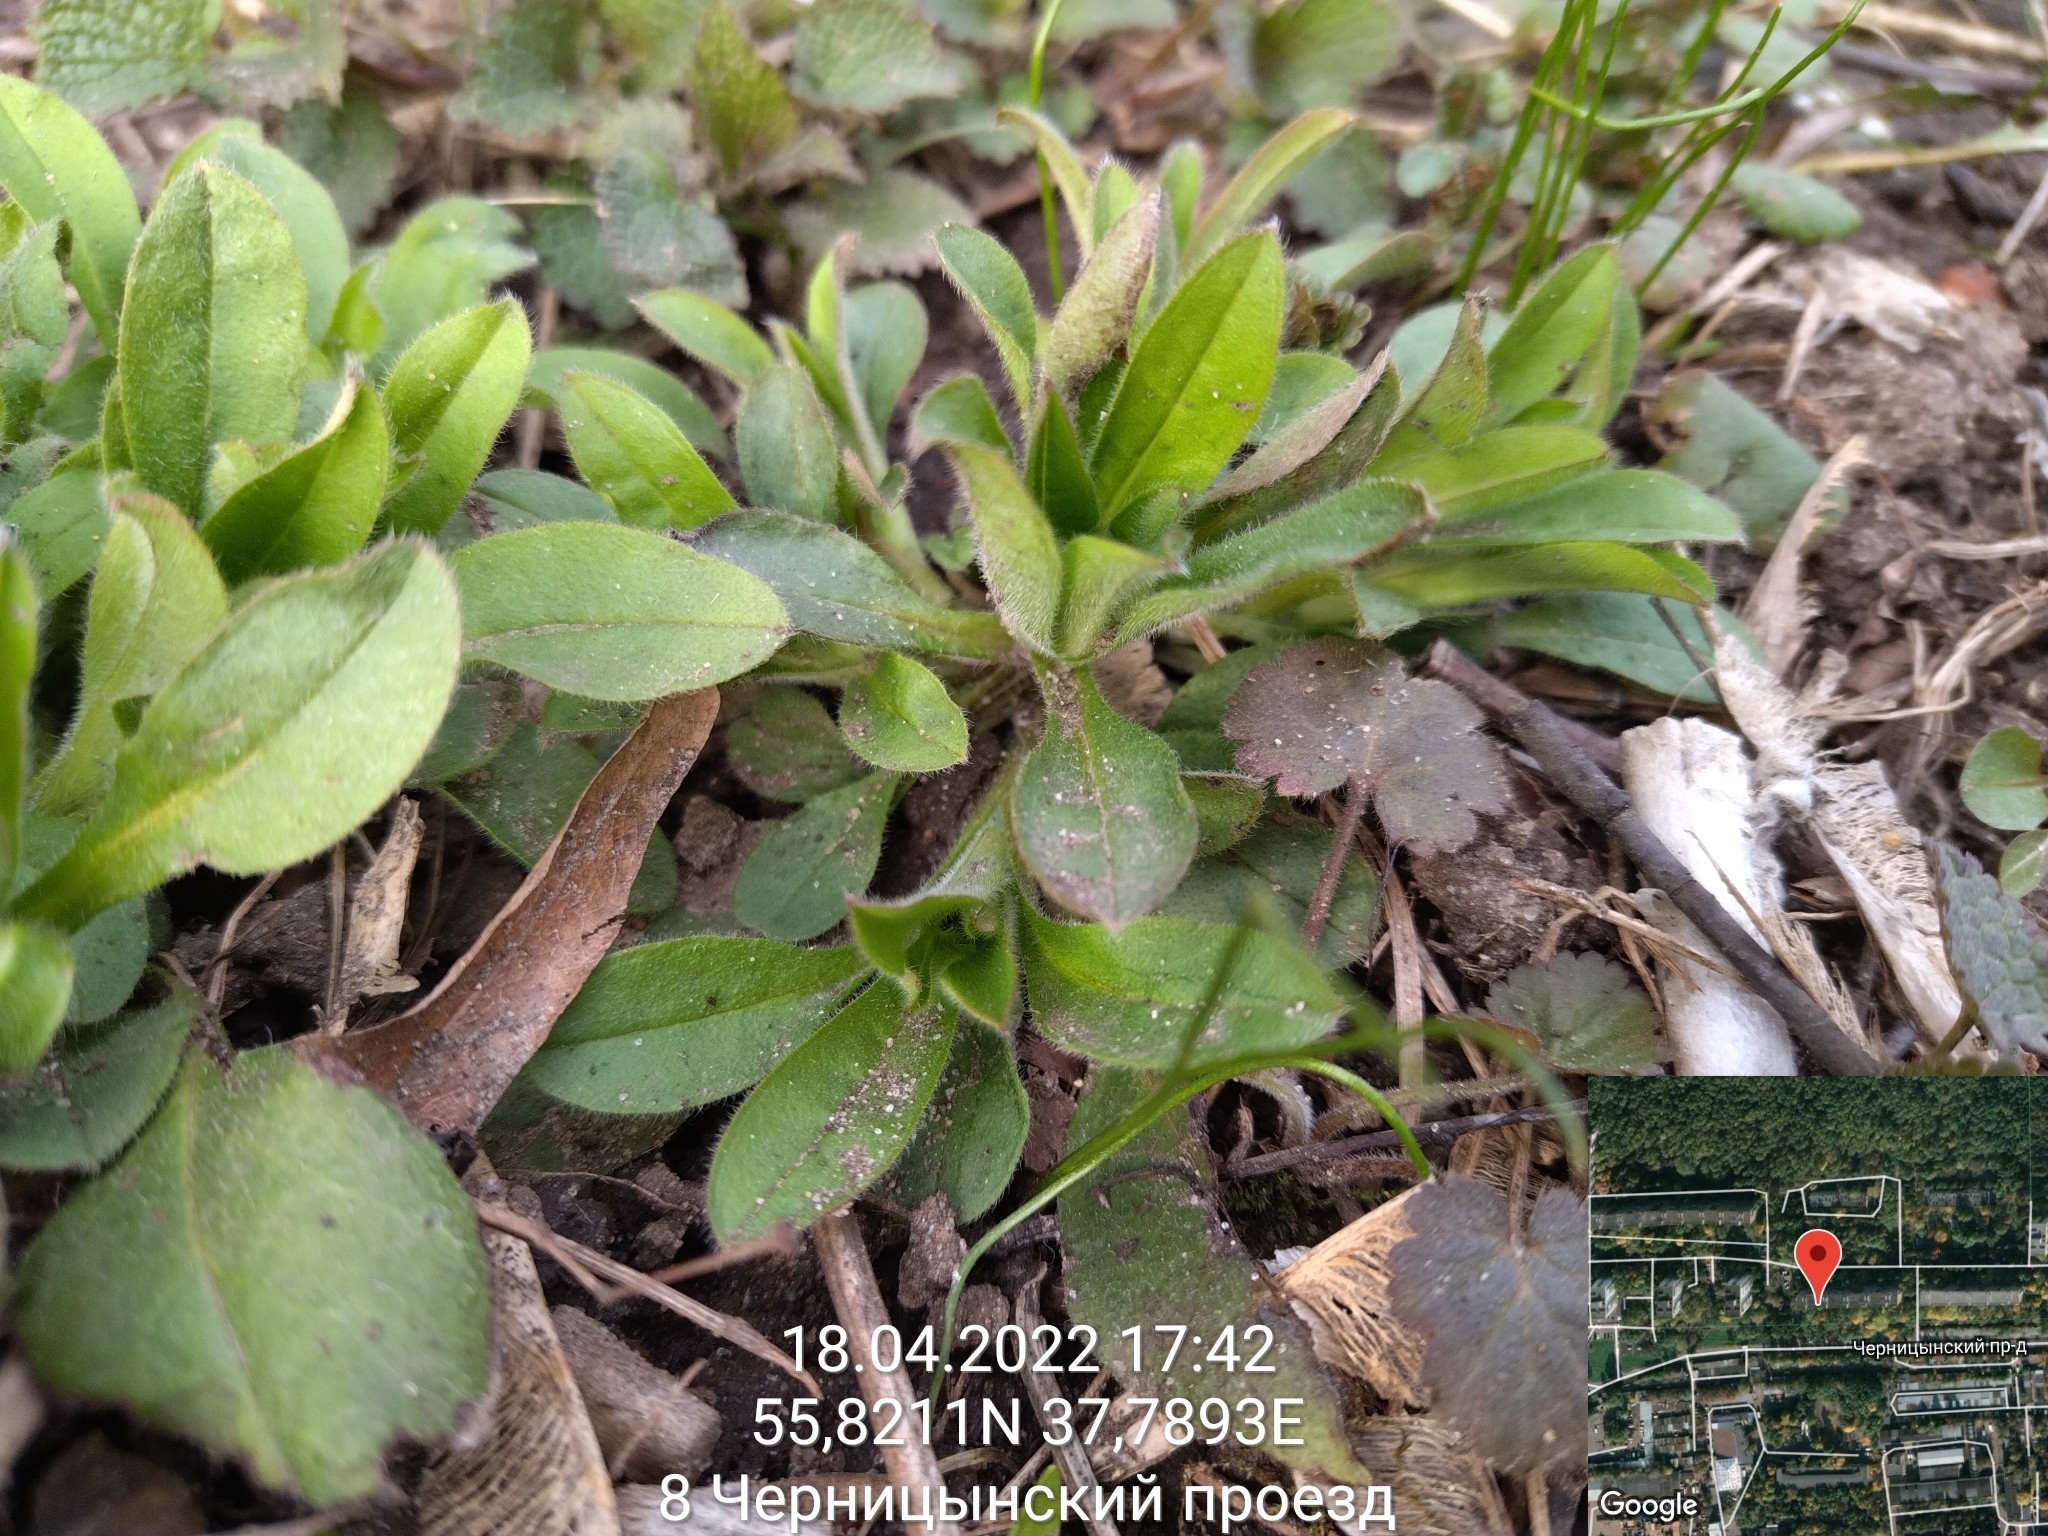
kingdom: Plantae
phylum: Tracheophyta
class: Magnoliopsida
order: Boraginales
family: Boraginaceae
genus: Myosotis
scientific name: Myosotis sparsiflora
